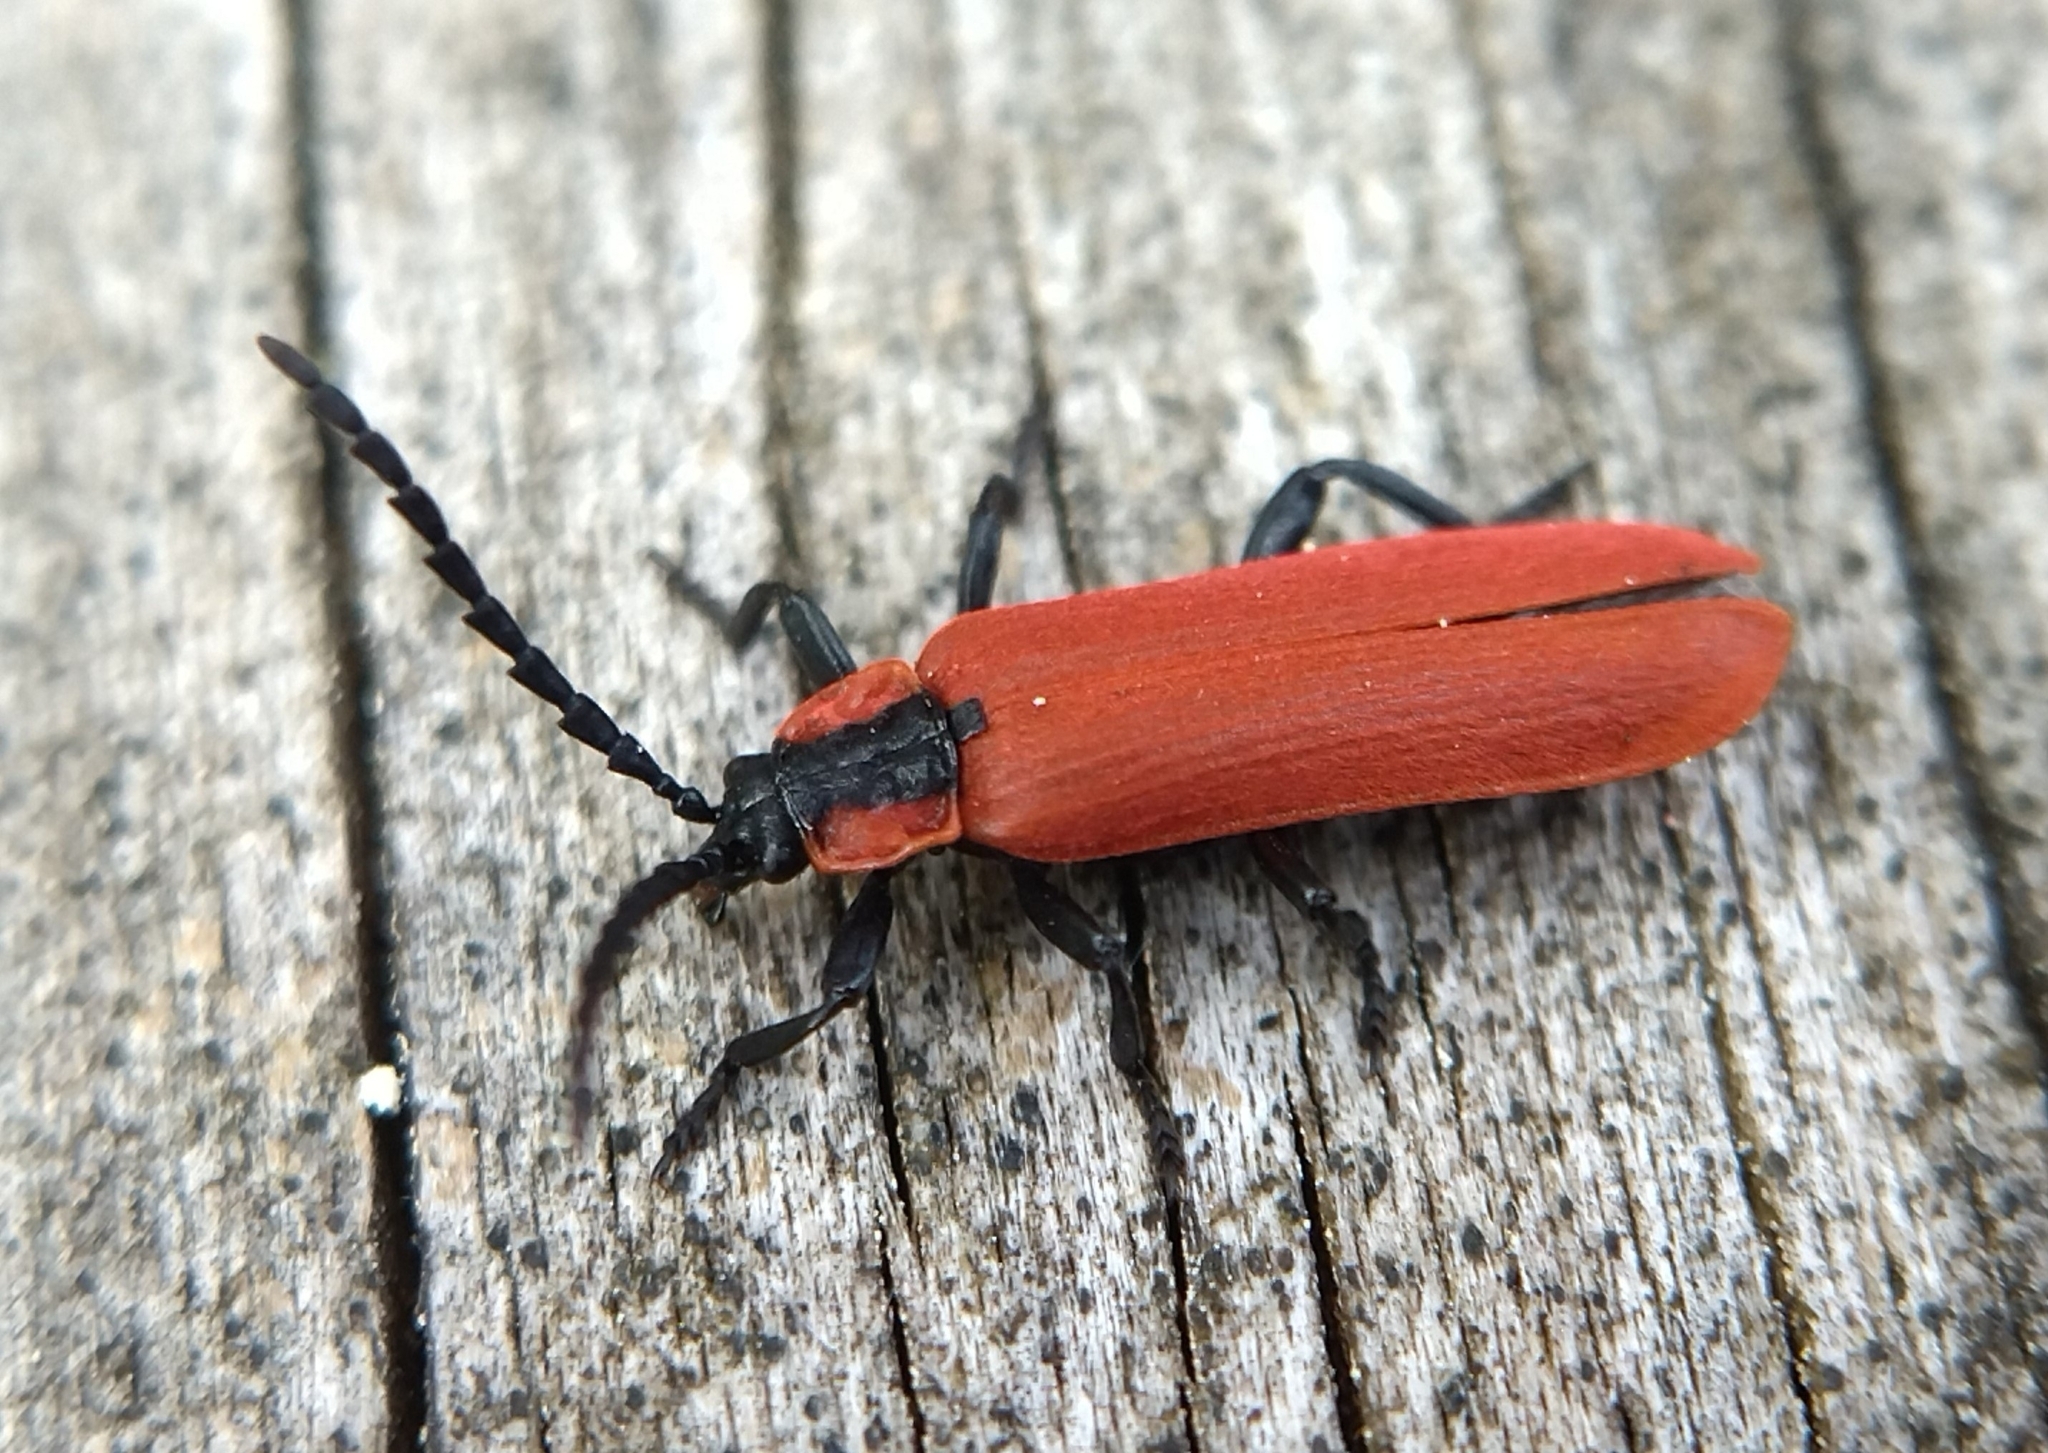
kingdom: Animalia
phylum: Arthropoda
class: Insecta
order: Coleoptera
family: Lycidae
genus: Lygistopterus
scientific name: Lygistopterus sanguineus
